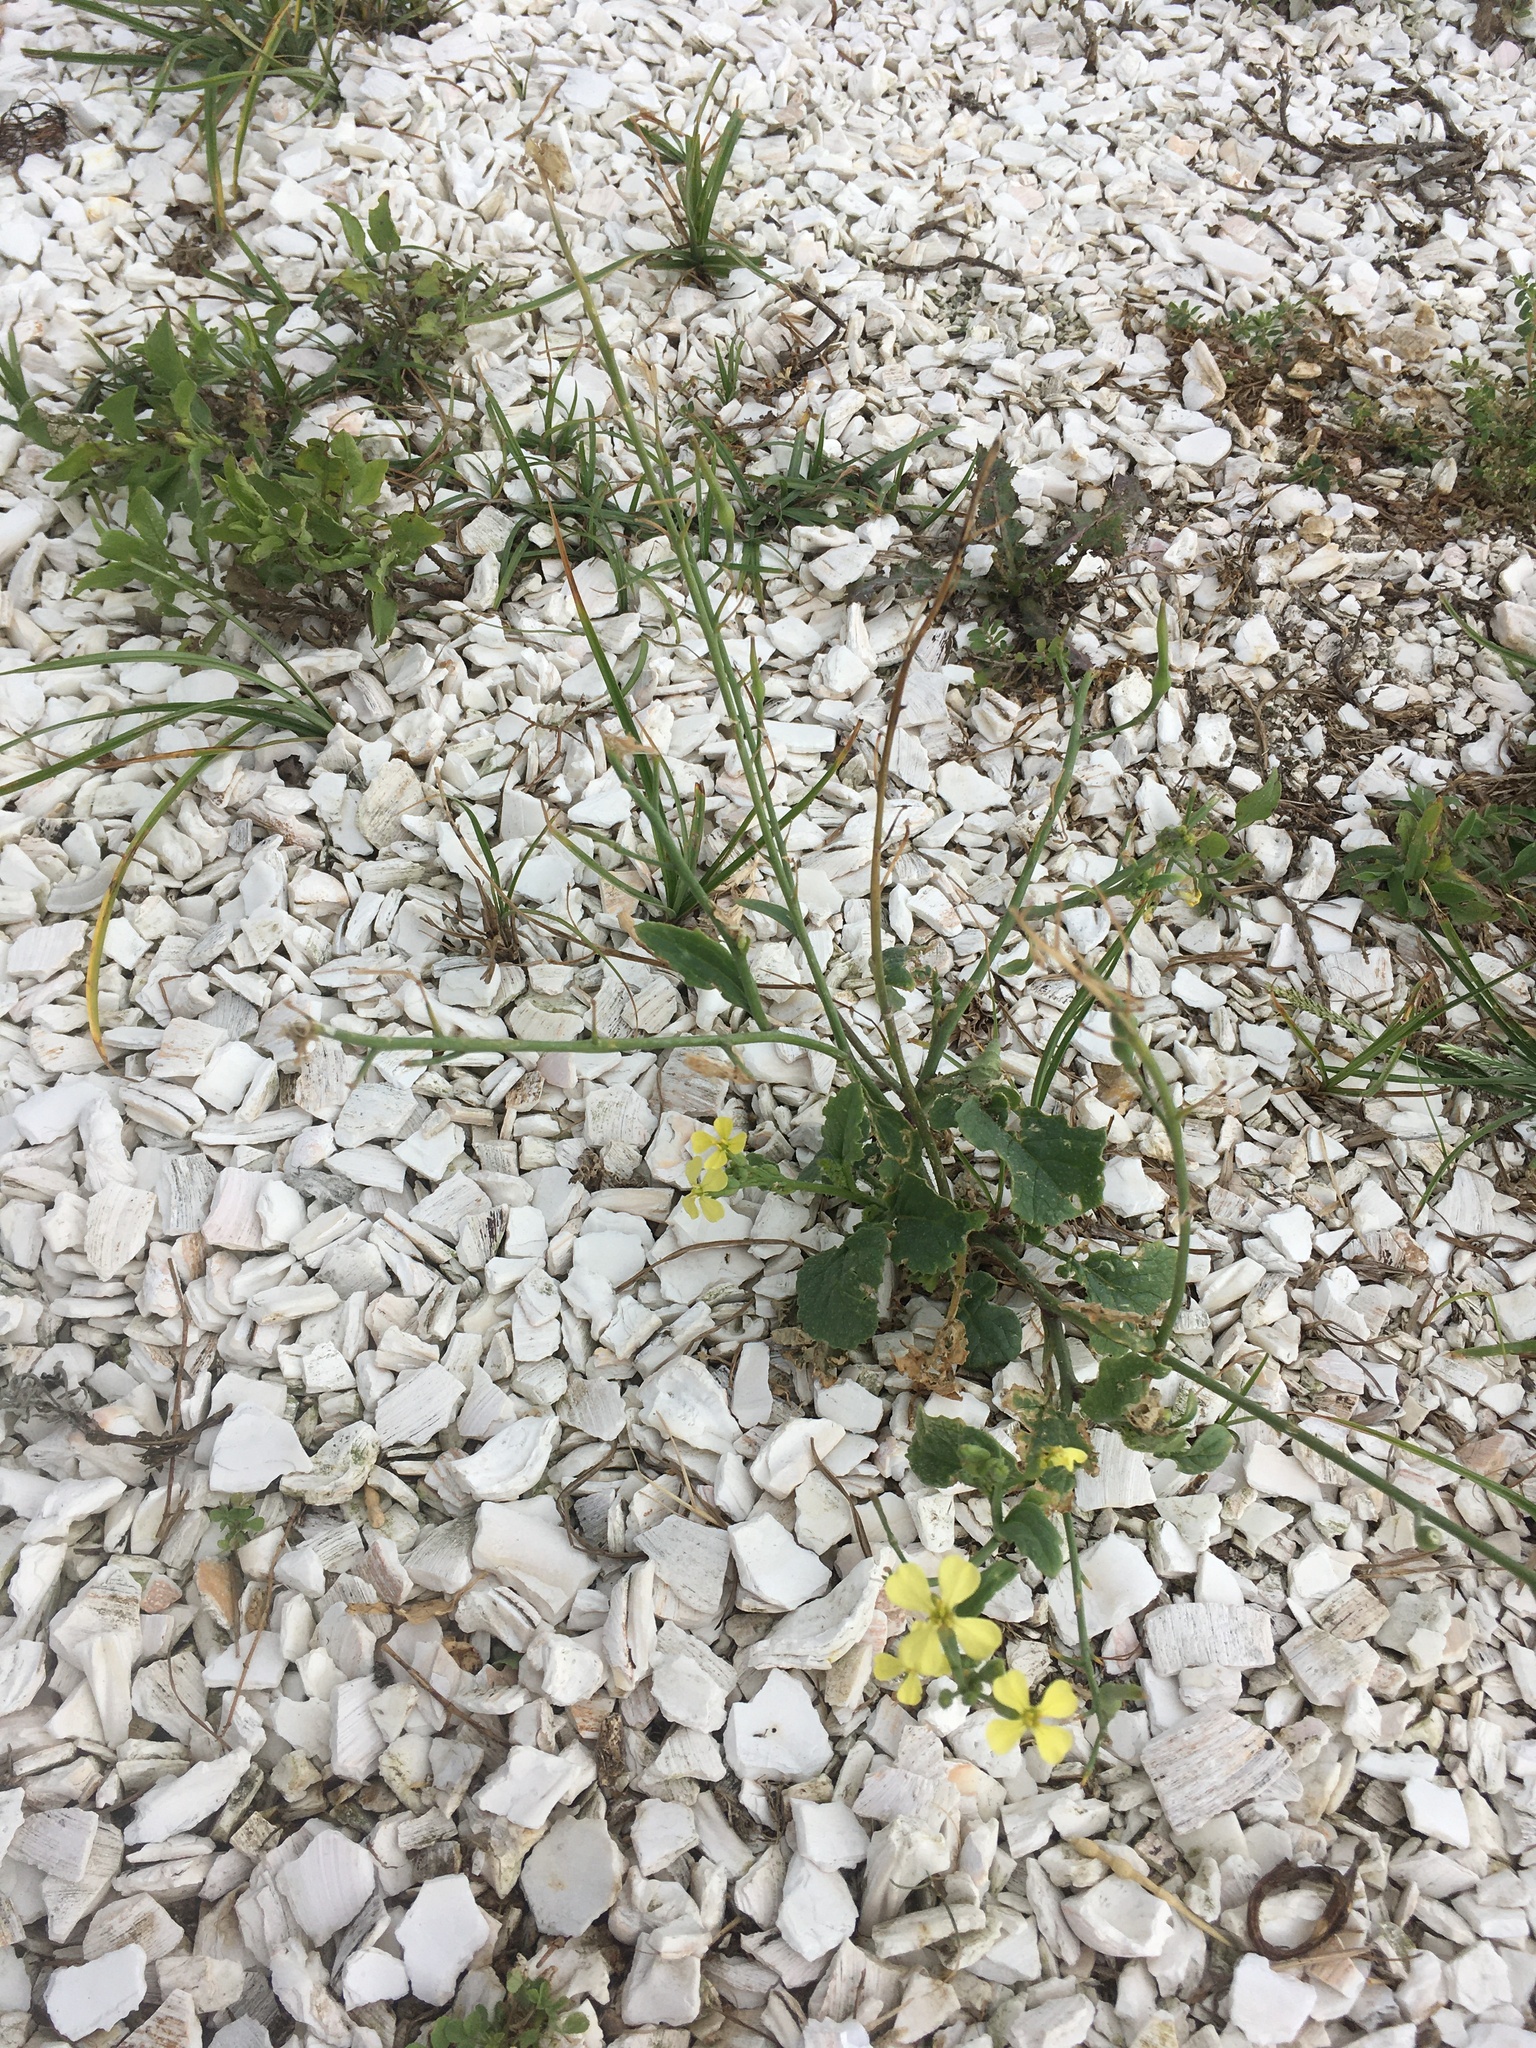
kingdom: Plantae
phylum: Tracheophyta
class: Magnoliopsida
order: Brassicales
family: Brassicaceae
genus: Raphanus
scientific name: Raphanus raphanistrum
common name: Wild radish
